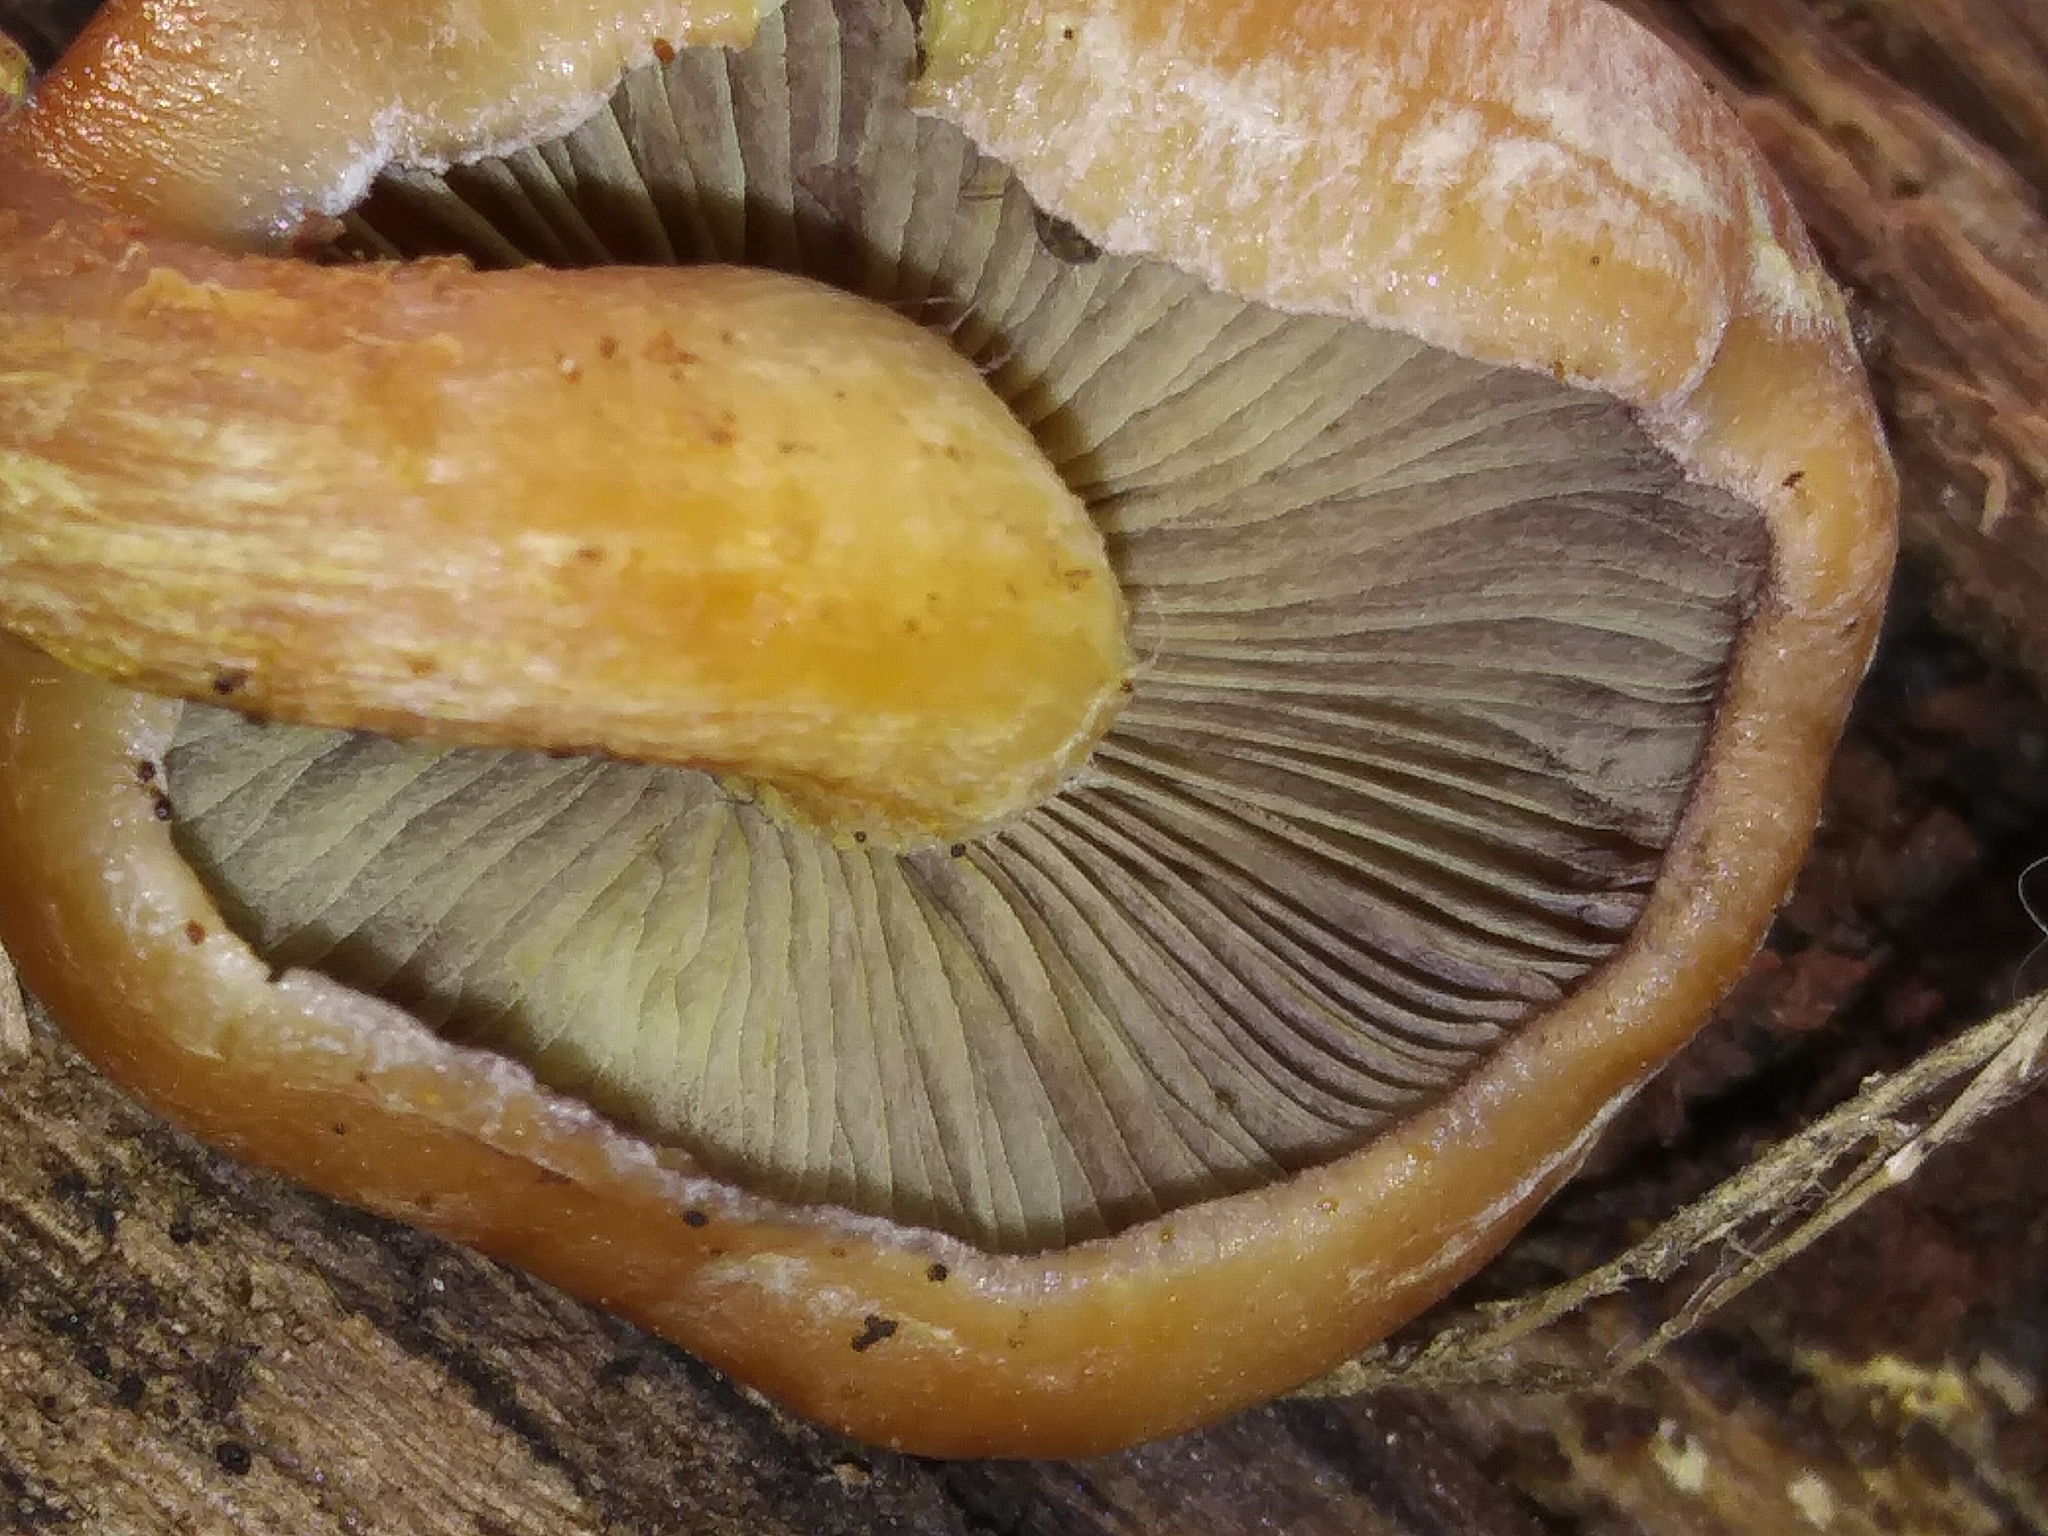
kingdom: Fungi
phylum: Basidiomycota
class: Agaricomycetes
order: Agaricales
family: Strophariaceae
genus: Hypholoma
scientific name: Hypholoma lateritium
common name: Brick caps
